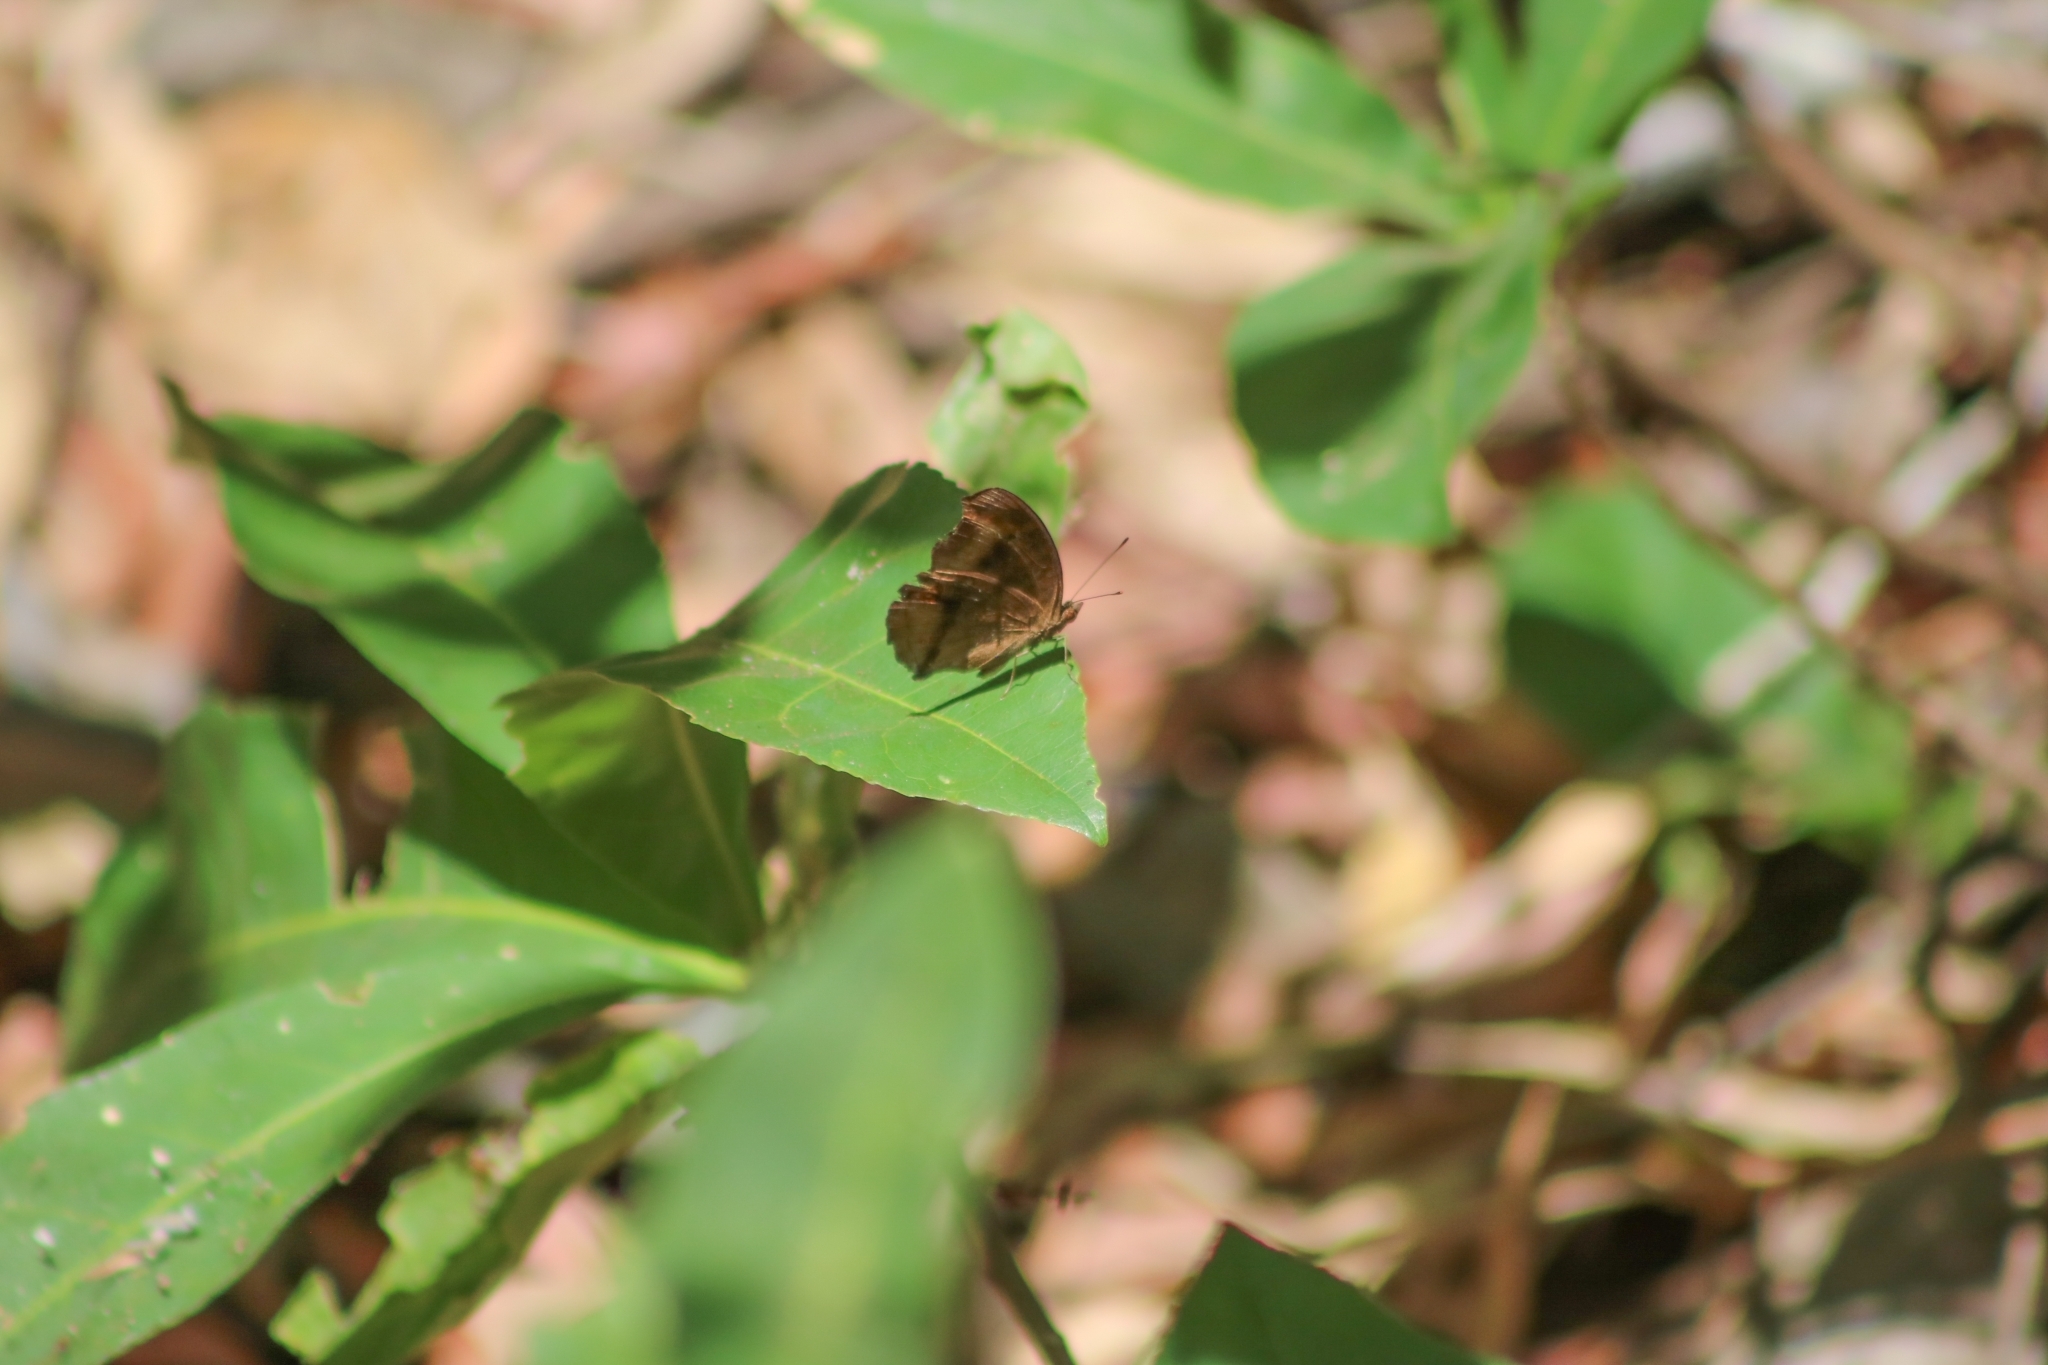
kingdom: Animalia
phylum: Arthropoda
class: Insecta
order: Lepidoptera
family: Nymphalidae
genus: Junonia
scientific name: Junonia hedonia
